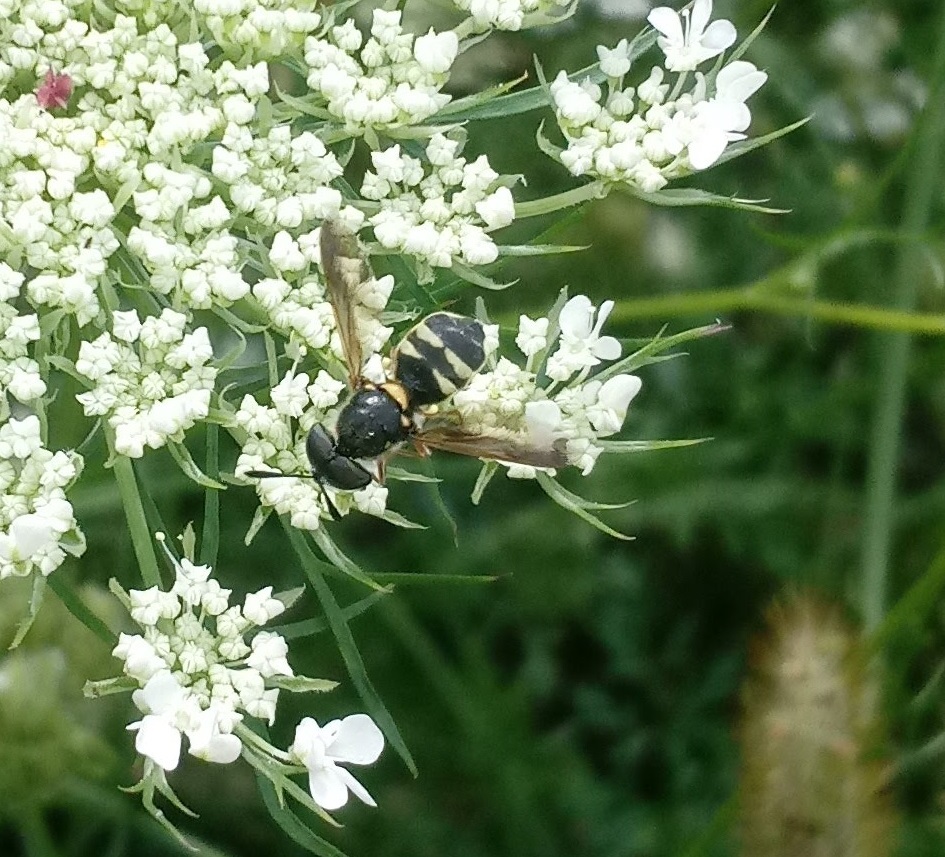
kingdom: Animalia
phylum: Arthropoda
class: Insecta
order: Diptera
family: Stratiomyidae
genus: Hoplitimyia
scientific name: Hoplitimyia constans
